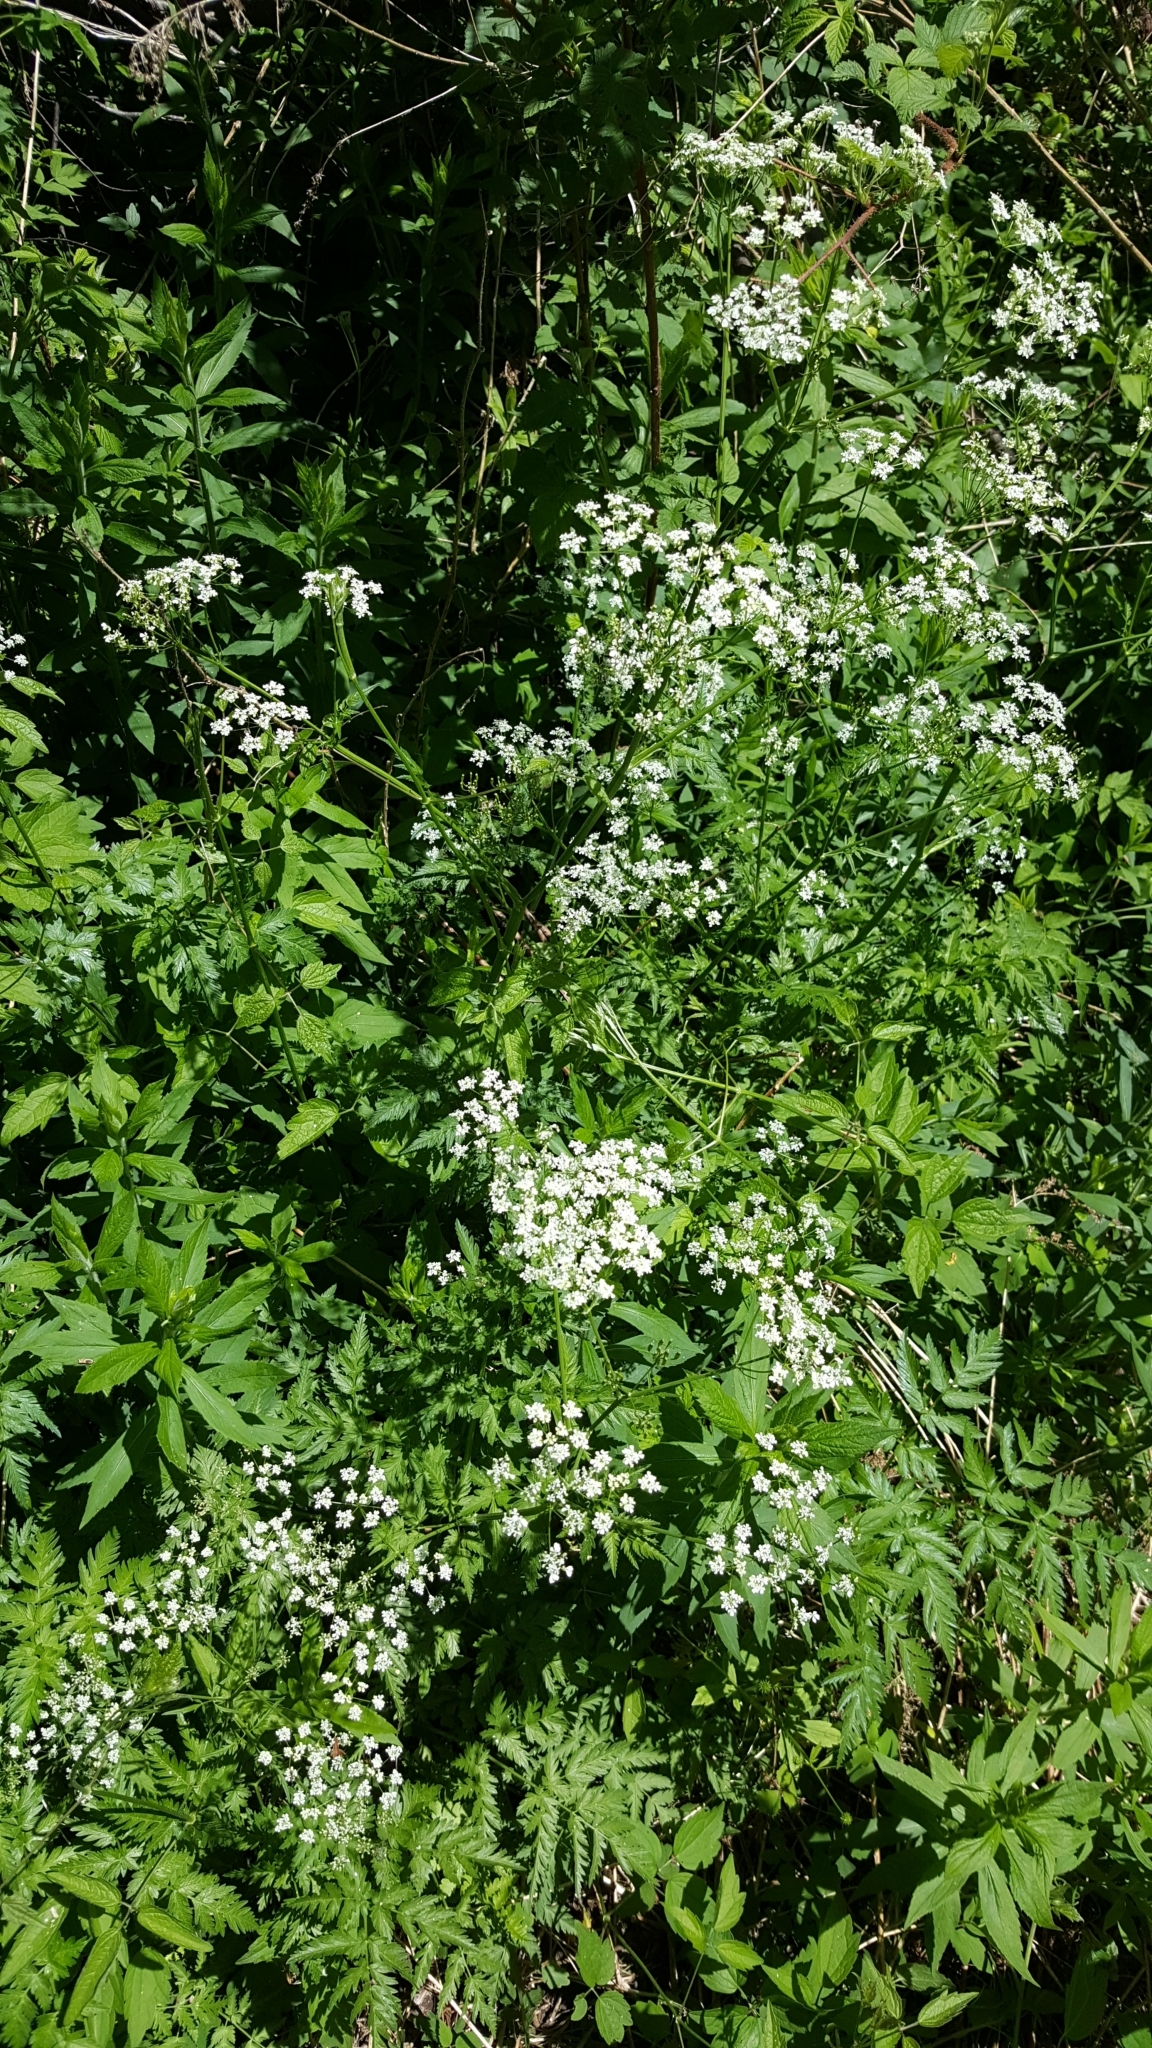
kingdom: Plantae
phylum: Tracheophyta
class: Magnoliopsida
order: Apiales
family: Apiaceae
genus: Anthriscus
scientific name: Anthriscus sylvestris
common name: Cow parsley
